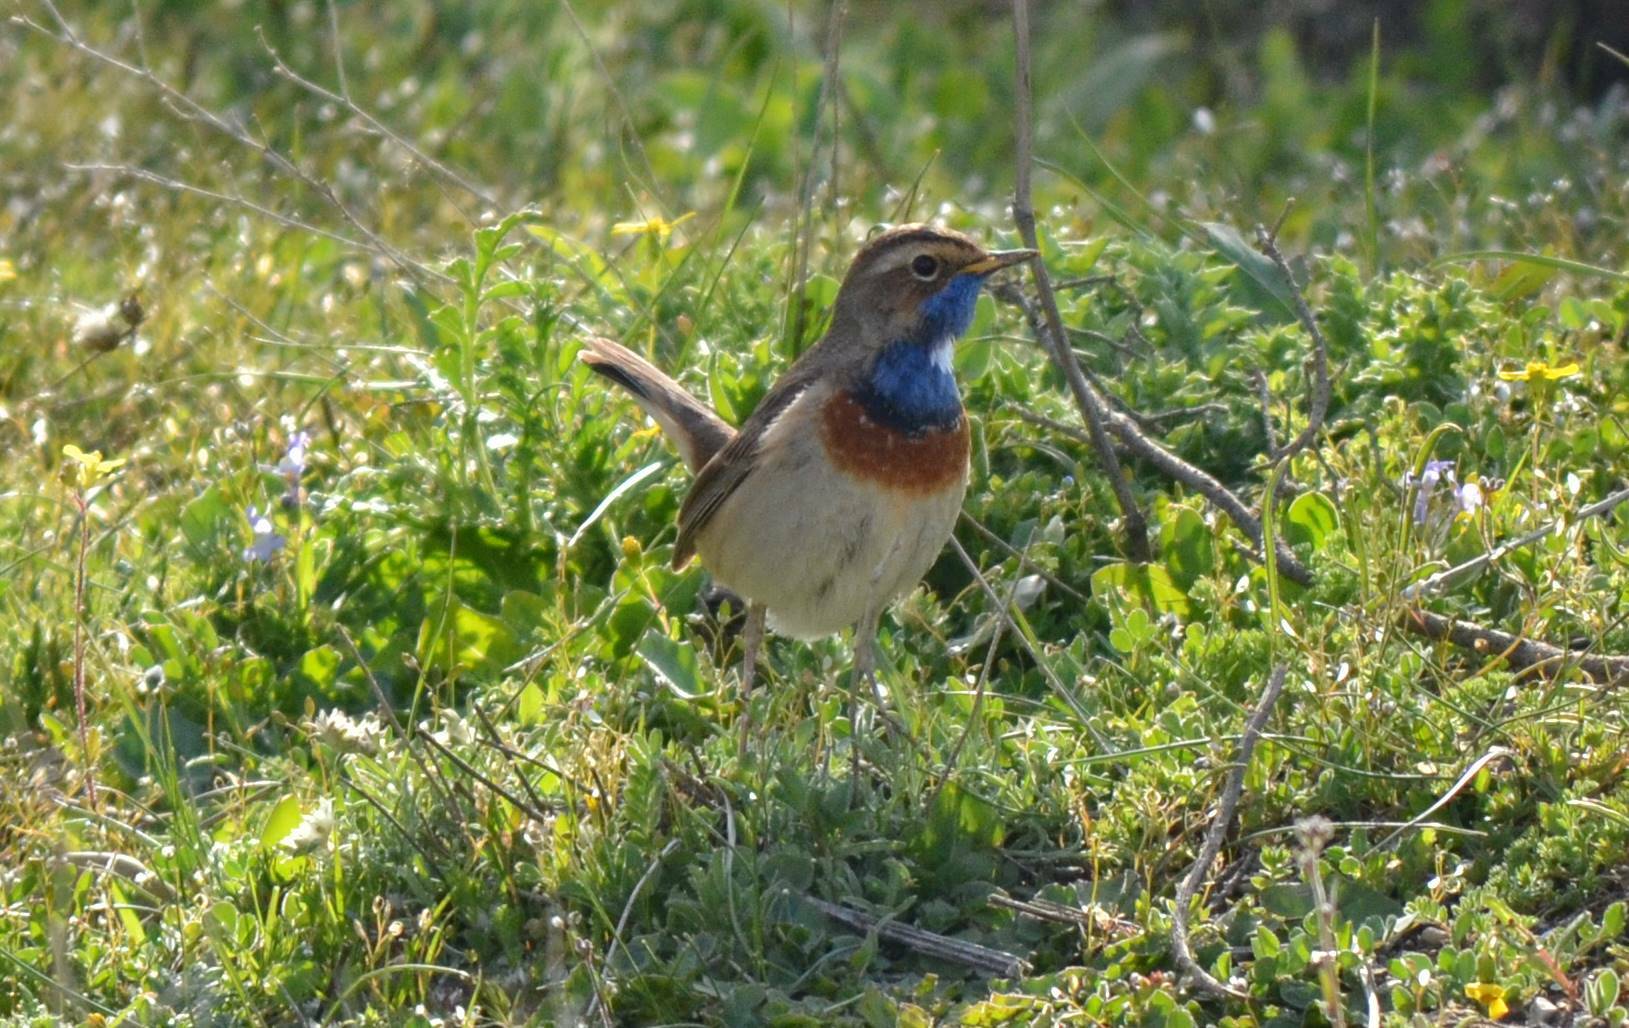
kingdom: Animalia
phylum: Chordata
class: Aves
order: Passeriformes
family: Muscicapidae
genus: Luscinia
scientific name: Luscinia svecica
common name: Bluethroat
